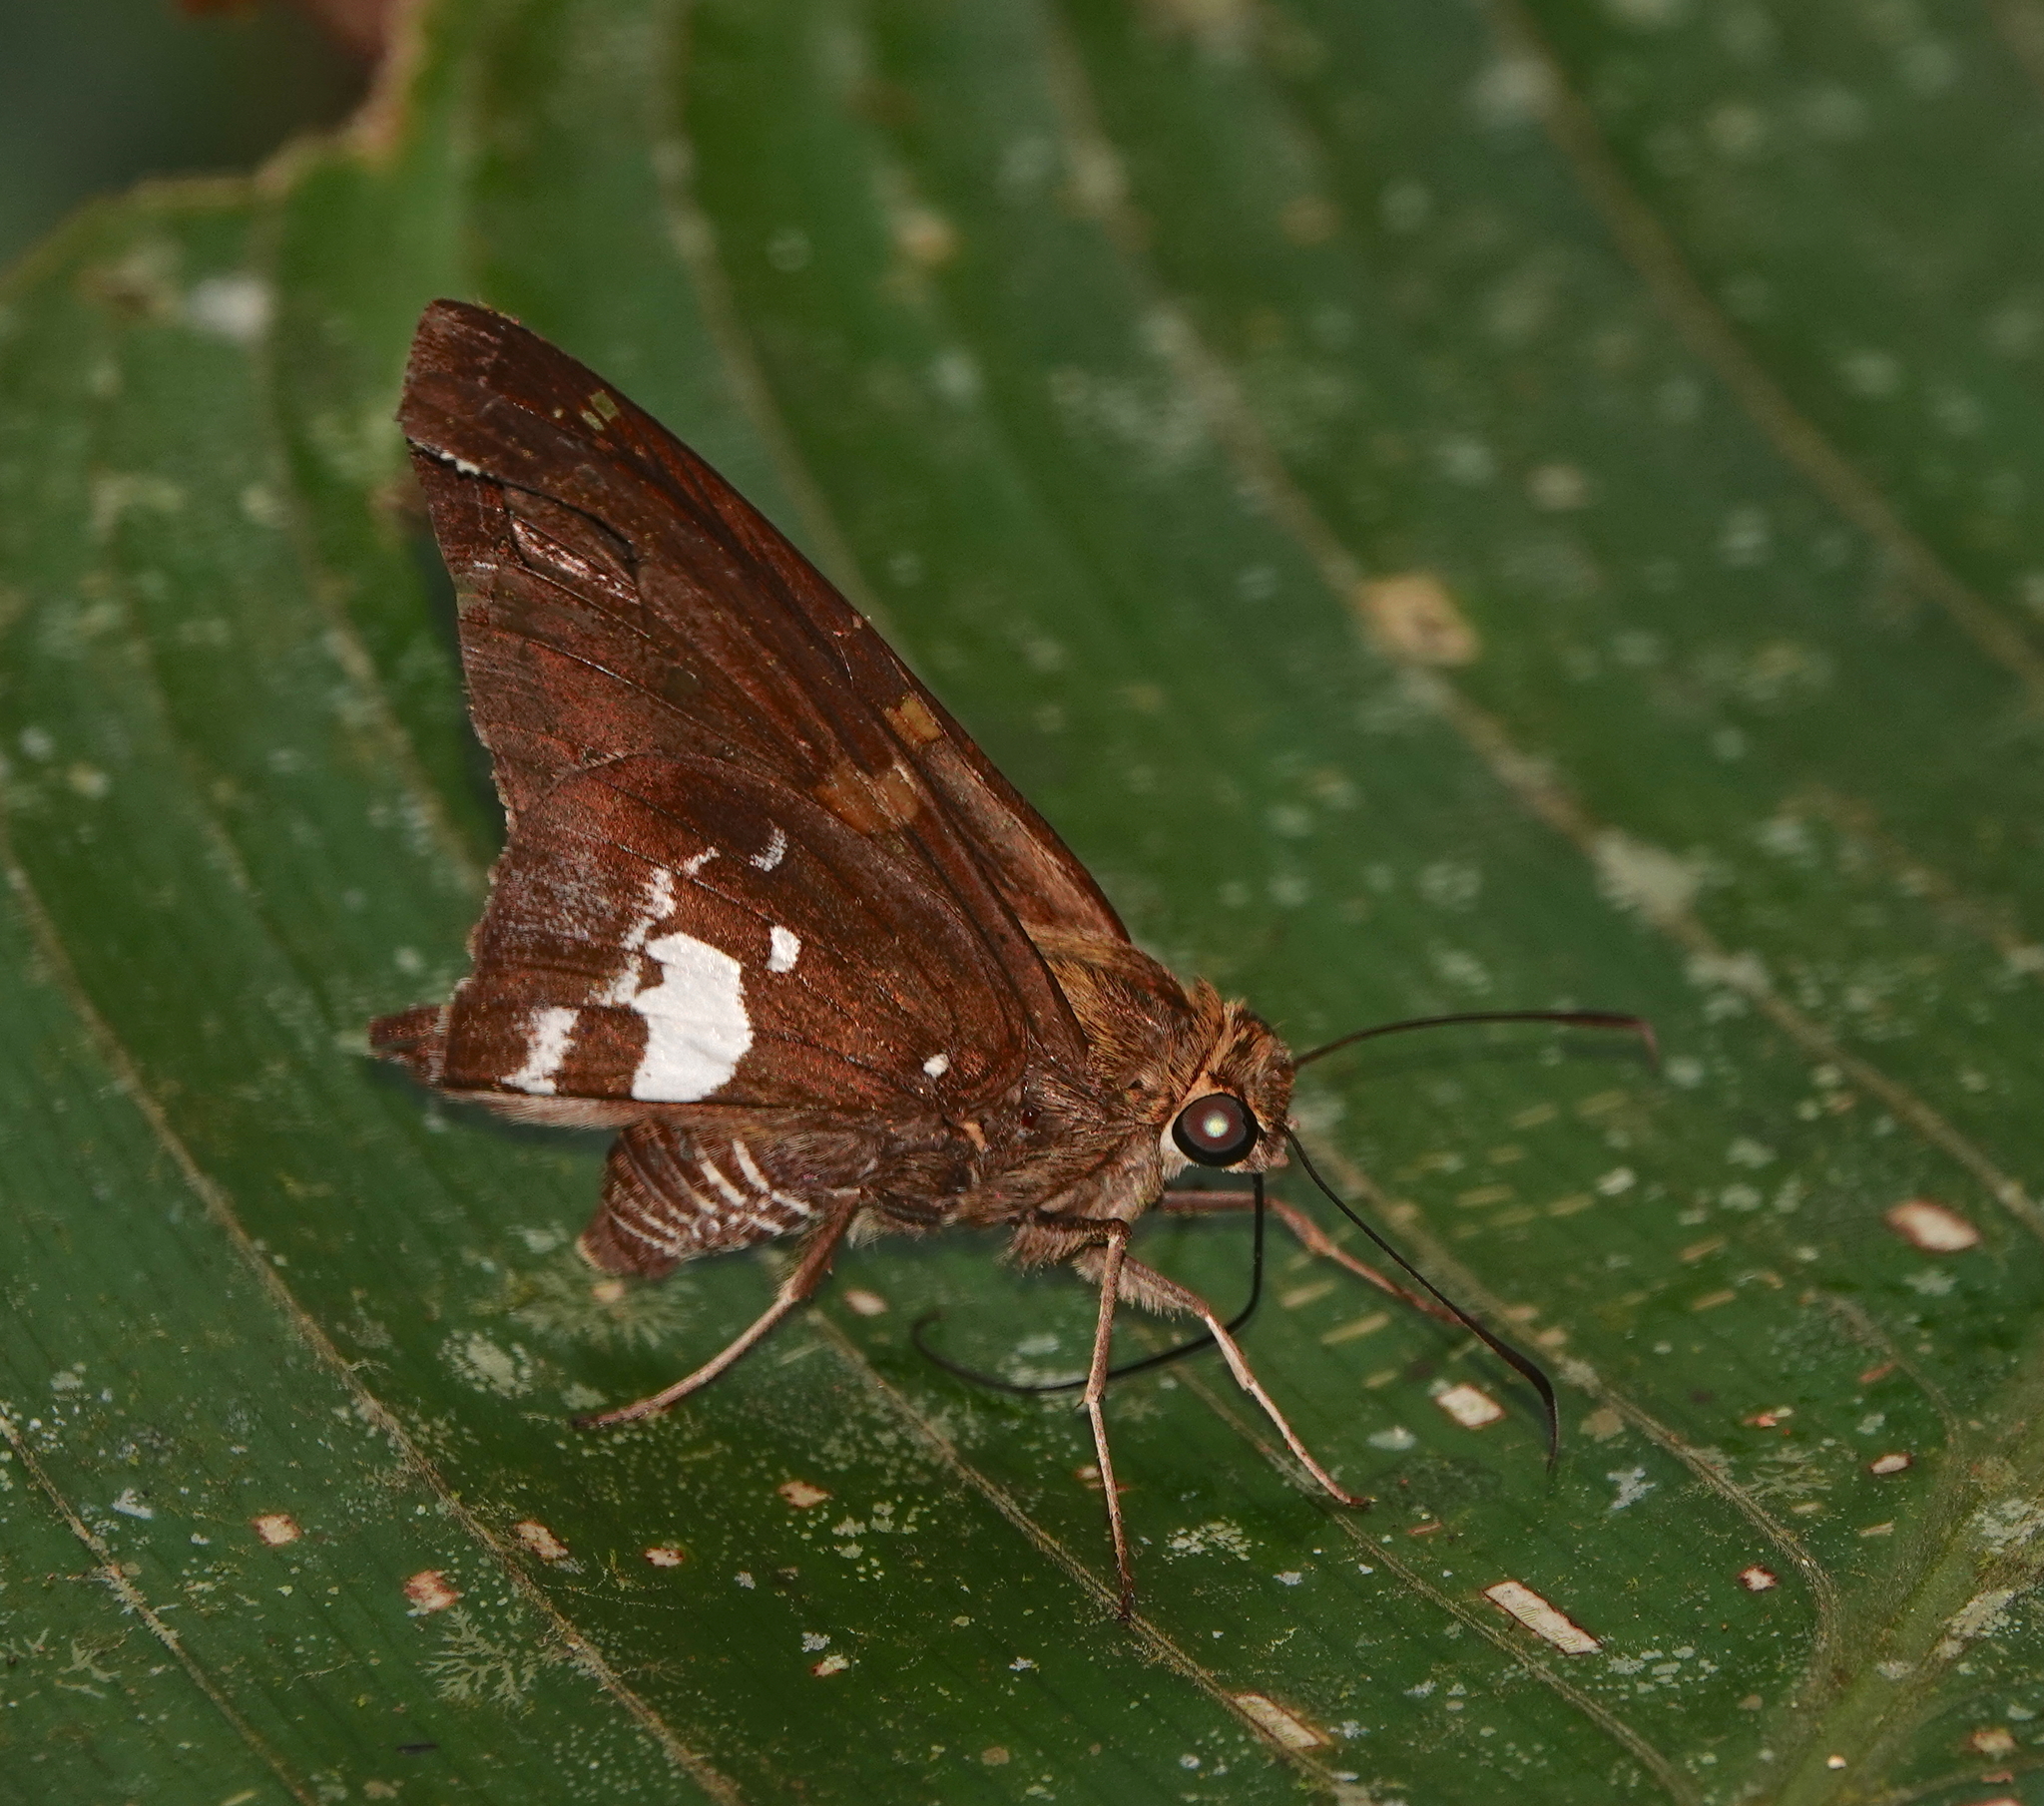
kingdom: Animalia
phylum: Arthropoda
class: Insecta
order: Lepidoptera
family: Hesperiidae
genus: Epargyreus
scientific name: Epargyreus exadeus
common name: Broken silverdrop
